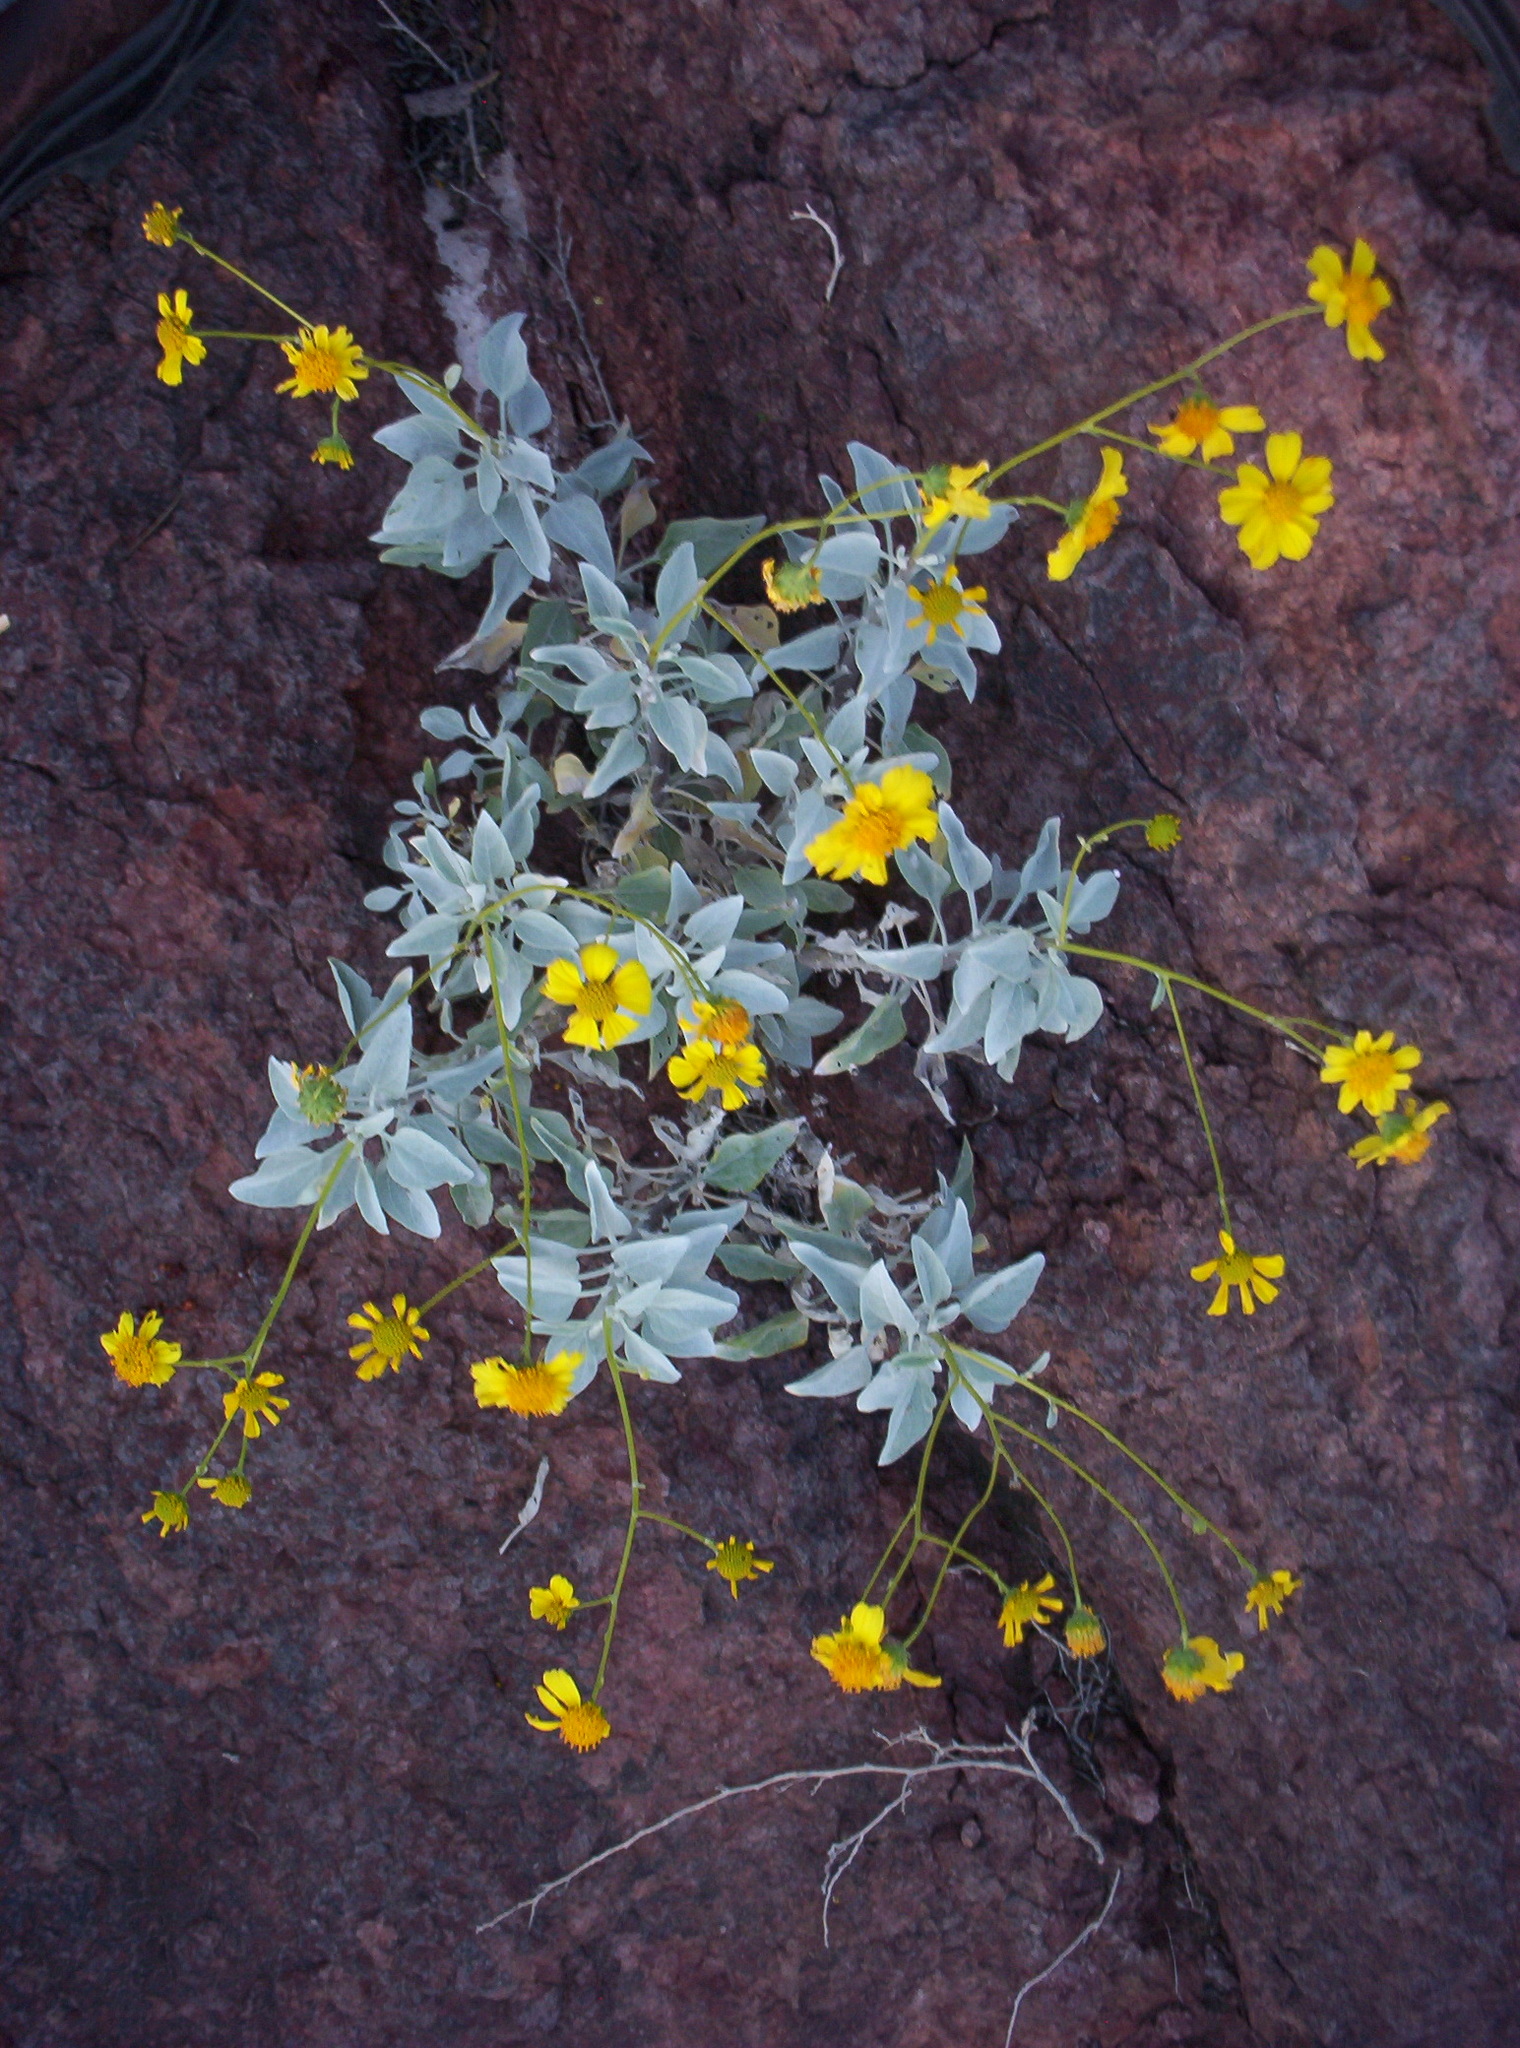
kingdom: Plantae
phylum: Tracheophyta
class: Magnoliopsida
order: Asterales
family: Asteraceae
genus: Encelia
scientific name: Encelia farinosa
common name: Brittlebush
